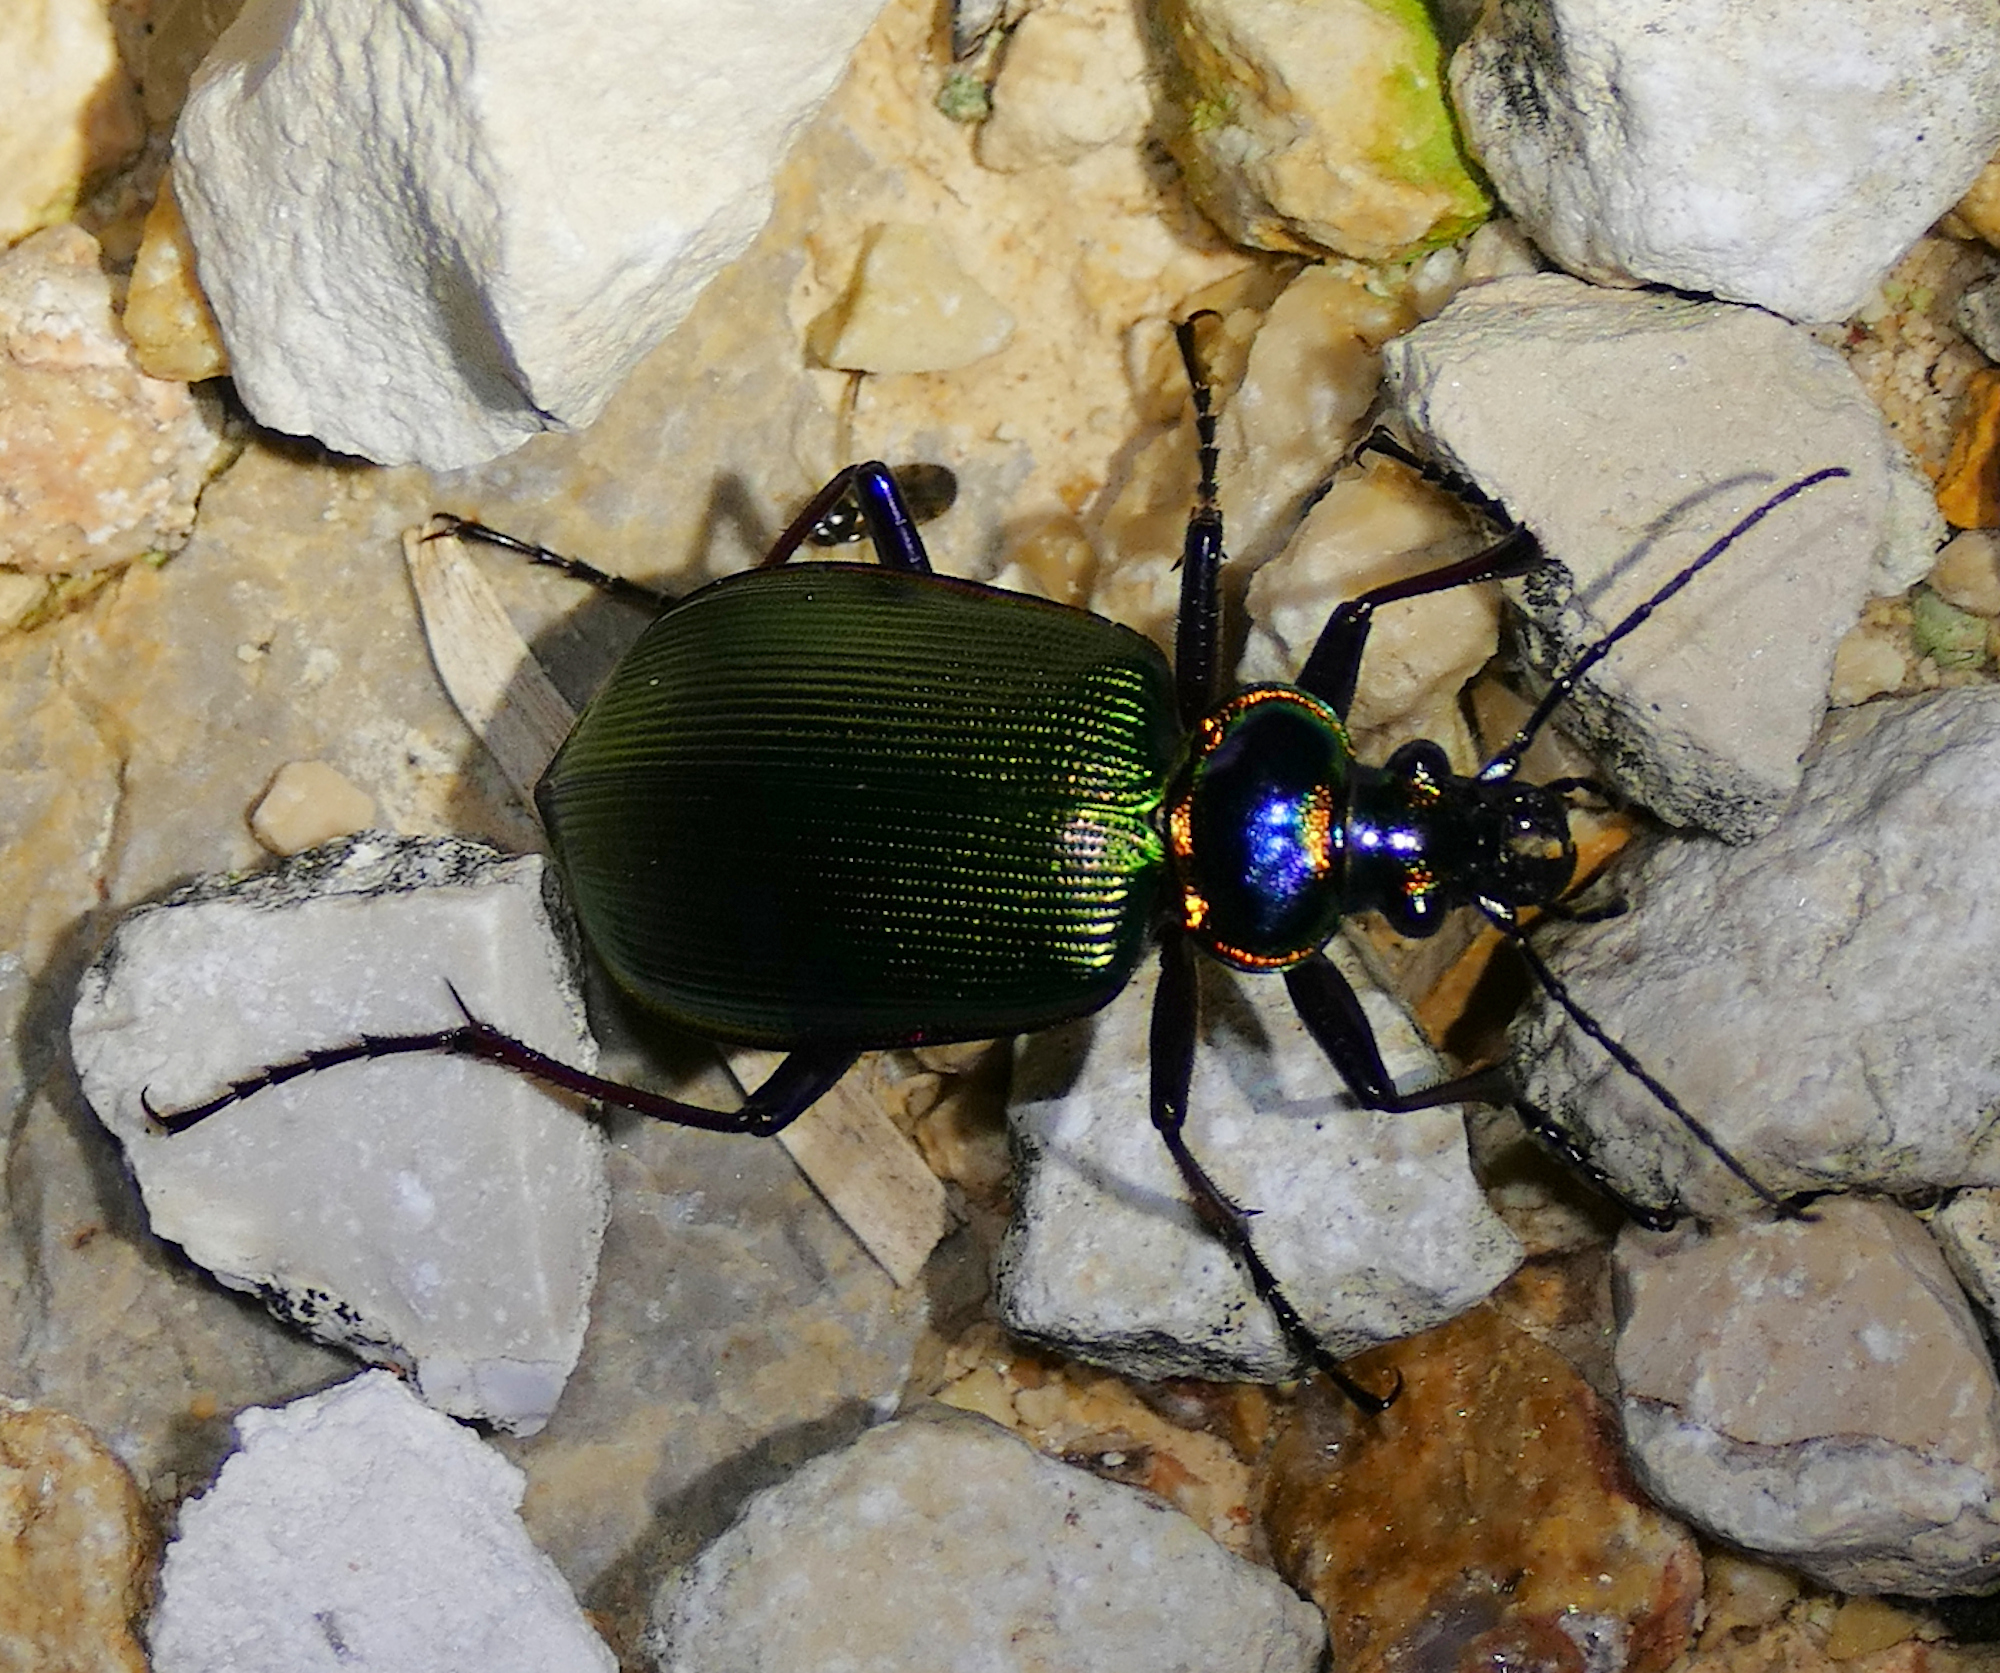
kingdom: Animalia
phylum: Arthropoda
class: Insecta
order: Coleoptera
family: Carabidae
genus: Calosoma
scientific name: Calosoma scrutator
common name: Fiery searcher beetle
